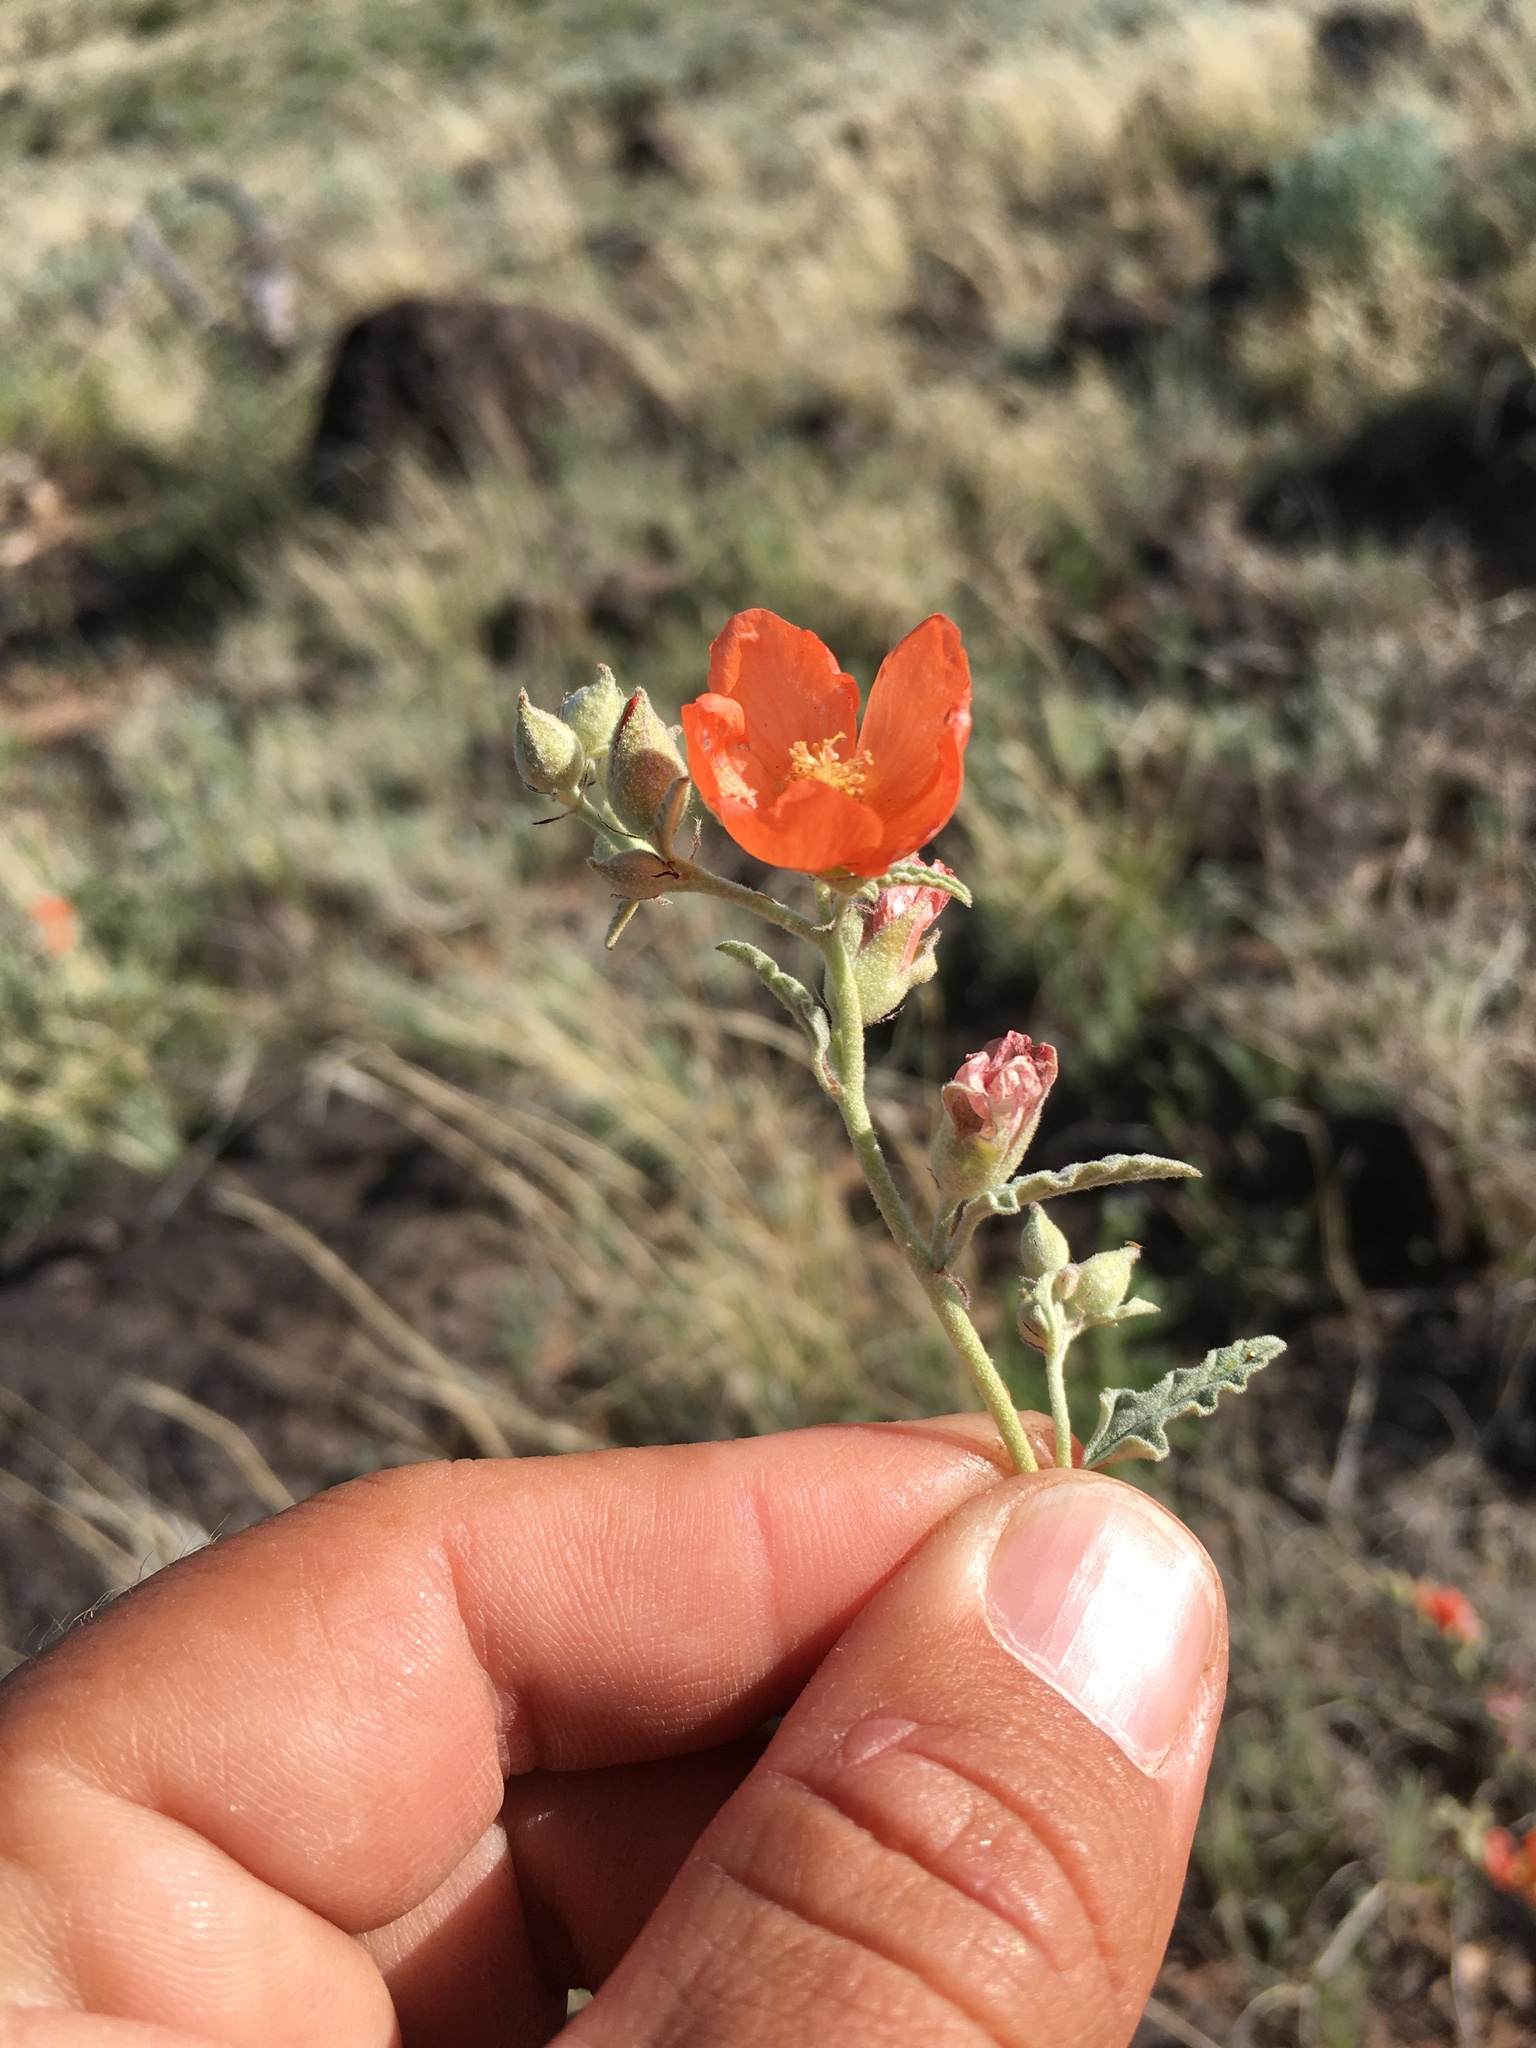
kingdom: Plantae
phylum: Tracheophyta
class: Magnoliopsida
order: Malvales
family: Malvaceae
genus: Sphaeralcea
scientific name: Sphaeralcea hastulata
